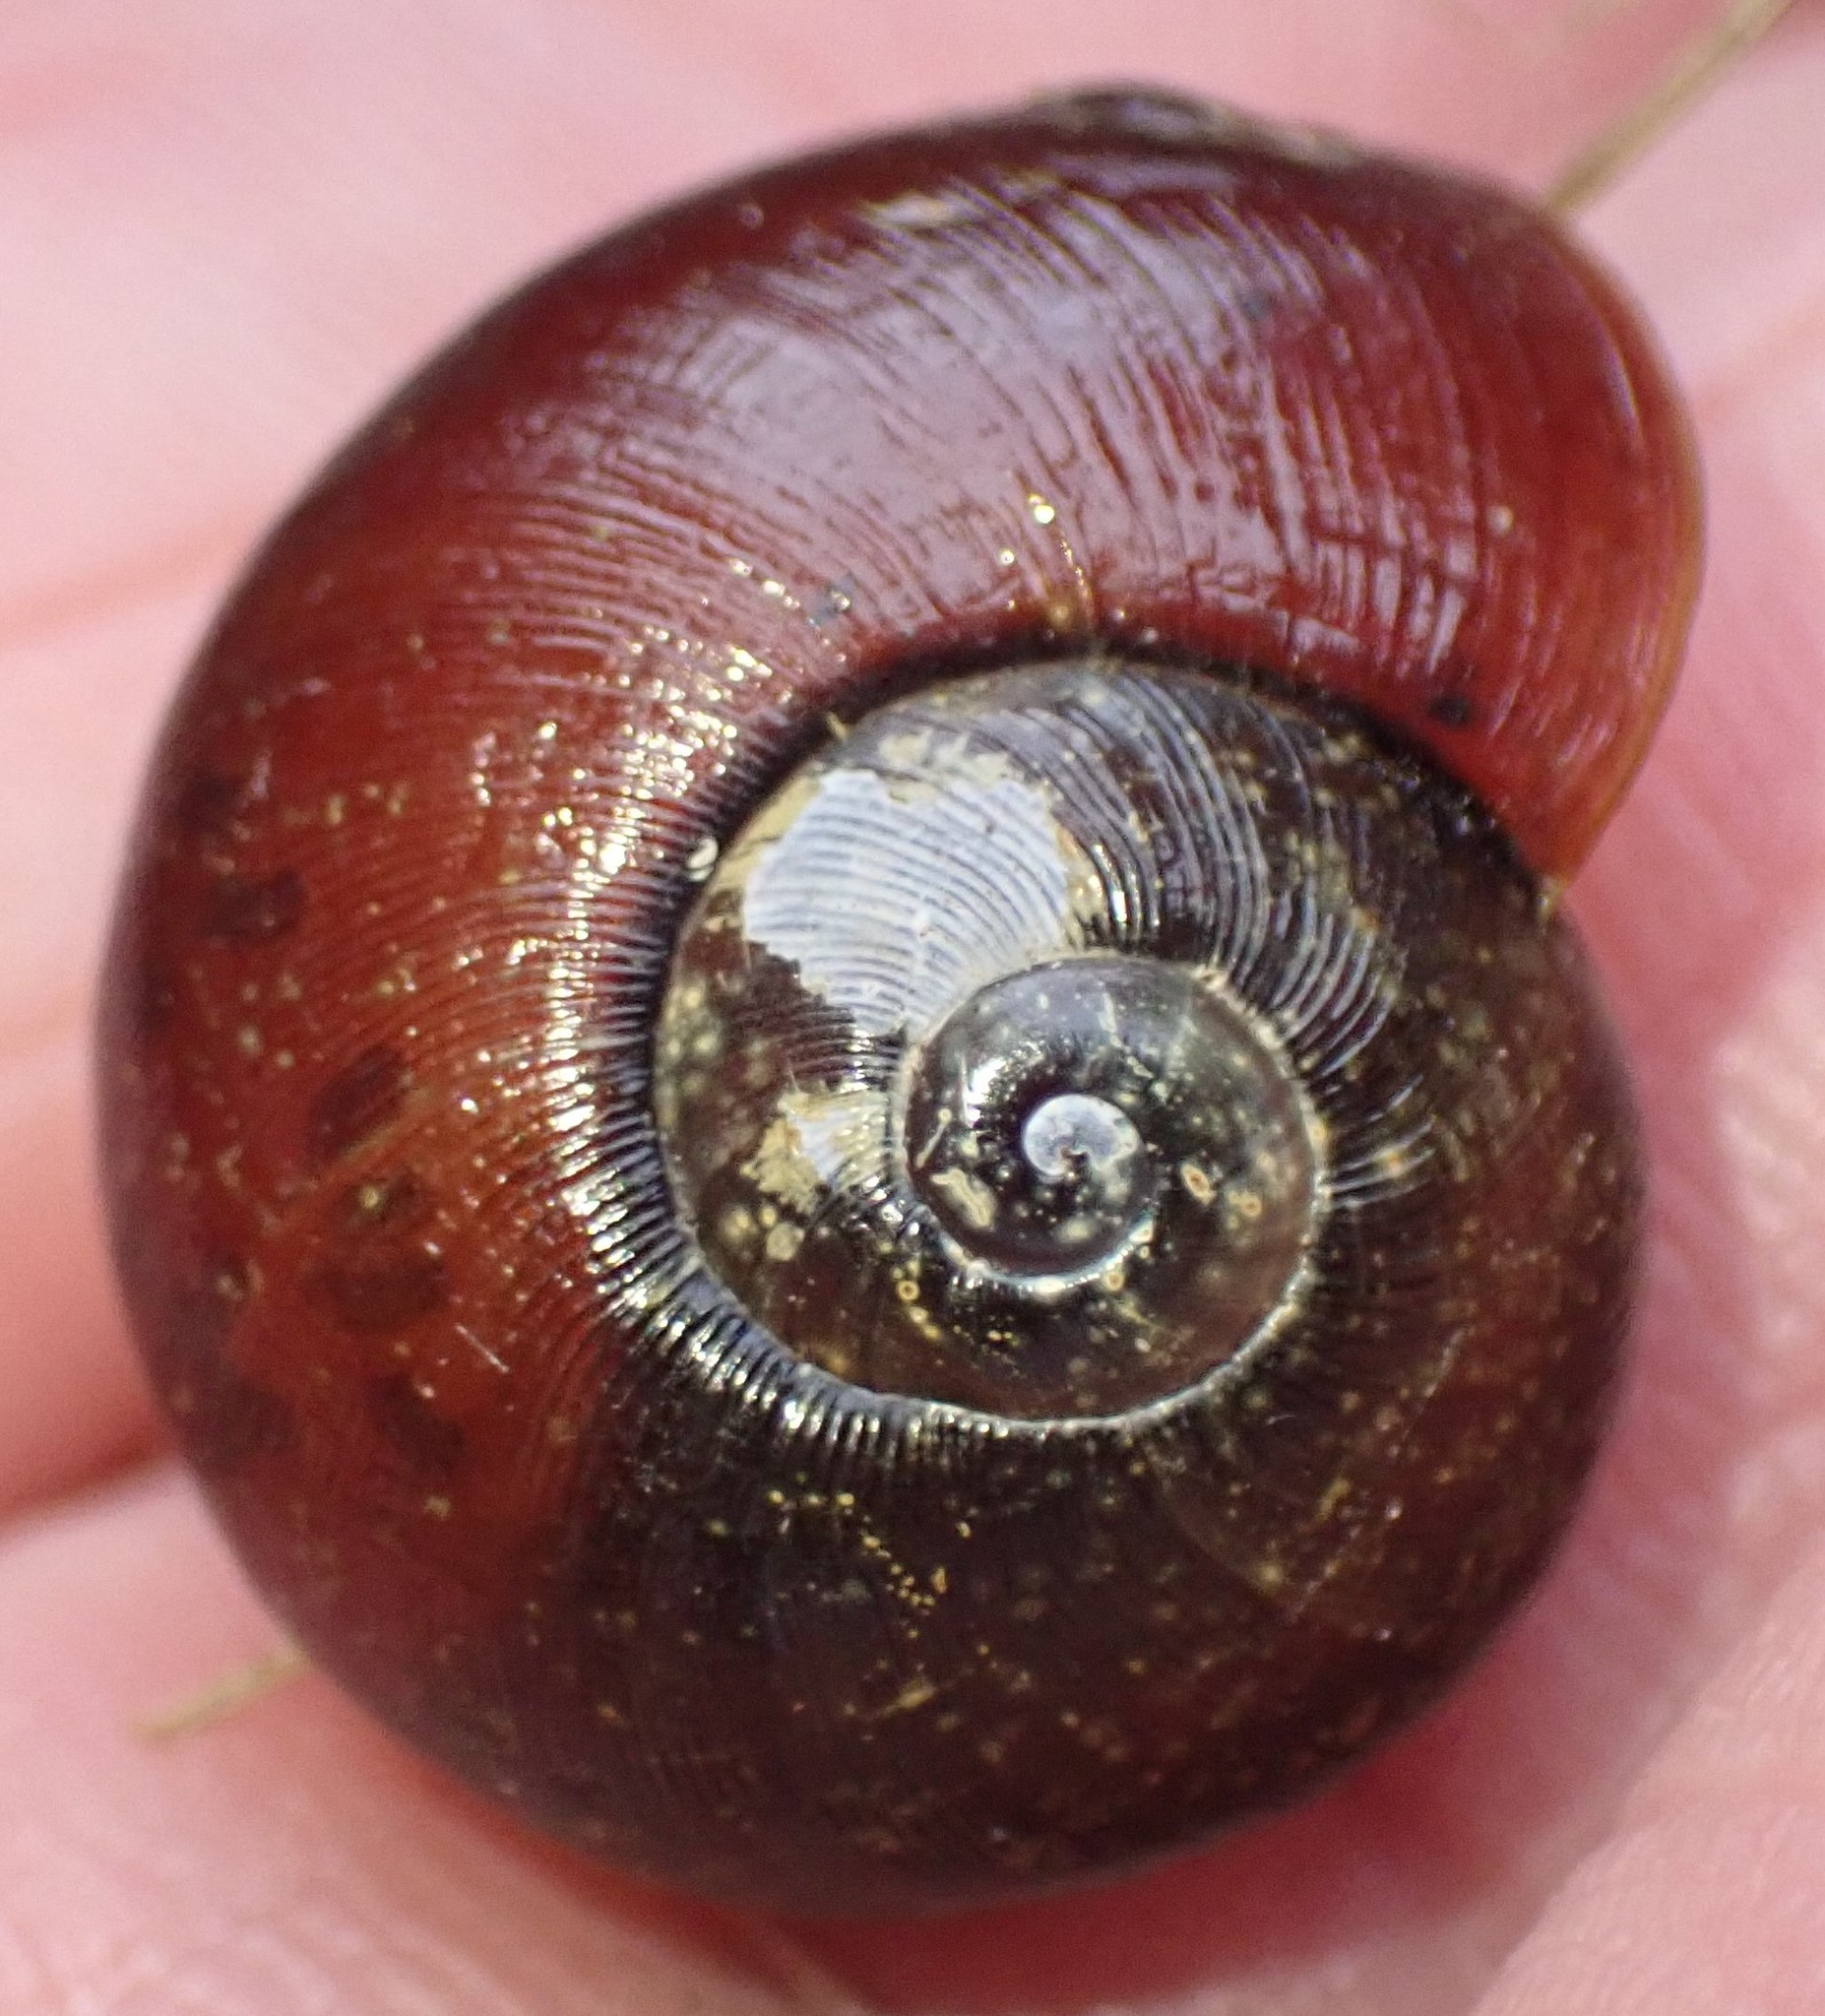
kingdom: Animalia
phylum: Mollusca
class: Gastropoda
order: Stylommatophora
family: Rhytididae
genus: Victaphanta
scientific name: Victaphanta lampra
